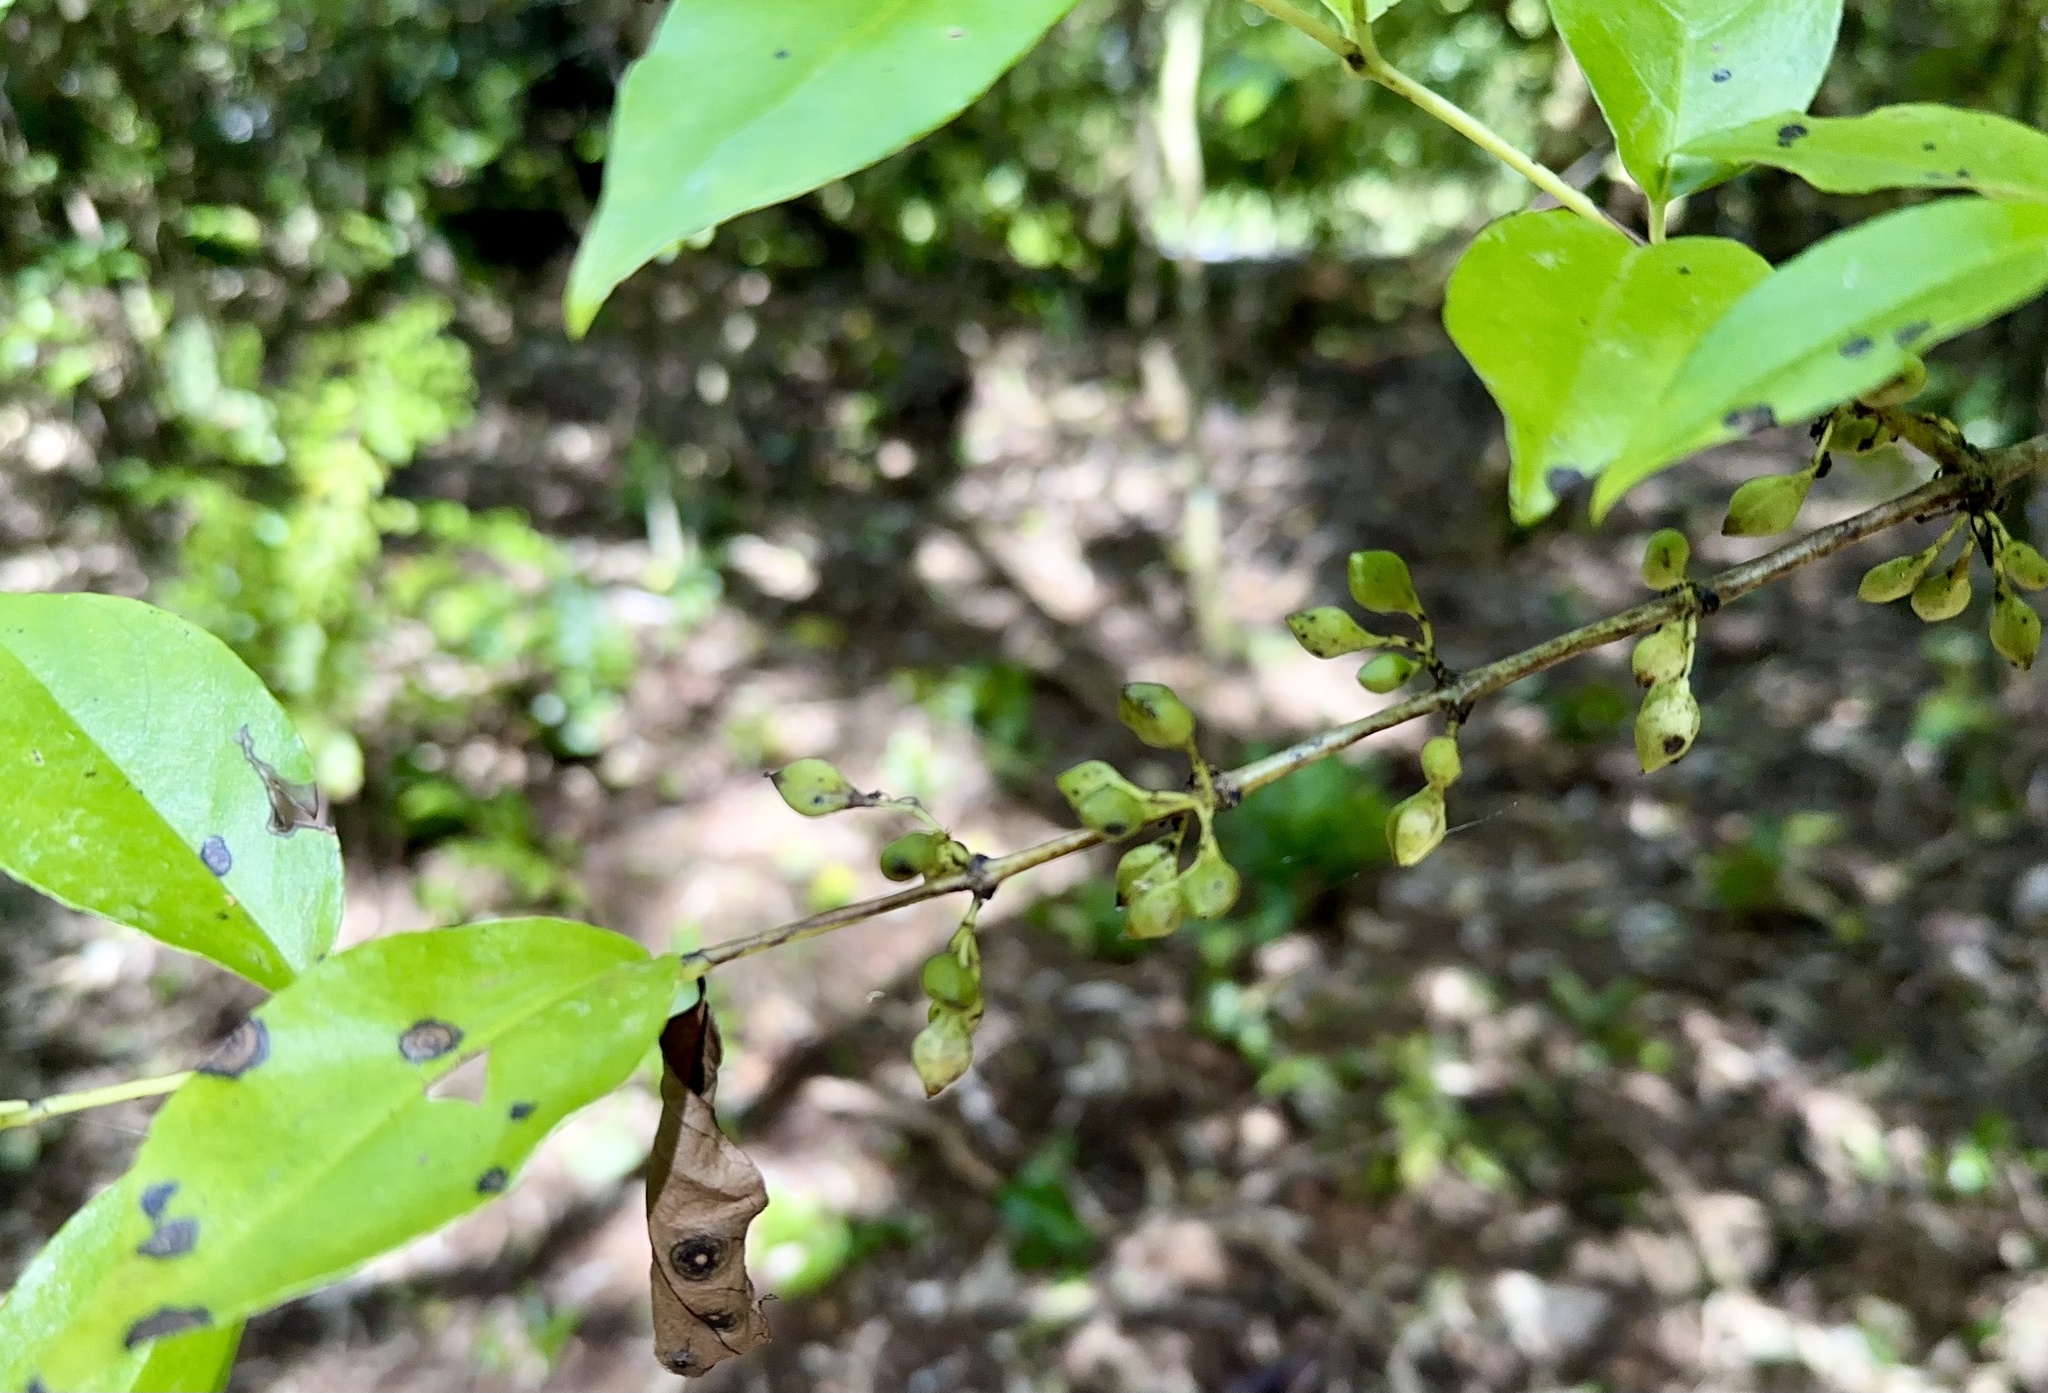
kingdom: Plantae
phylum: Tracheophyta
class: Magnoliopsida
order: Gentianales
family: Loganiaceae
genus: Geniostoma
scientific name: Geniostoma ligustrifolium
